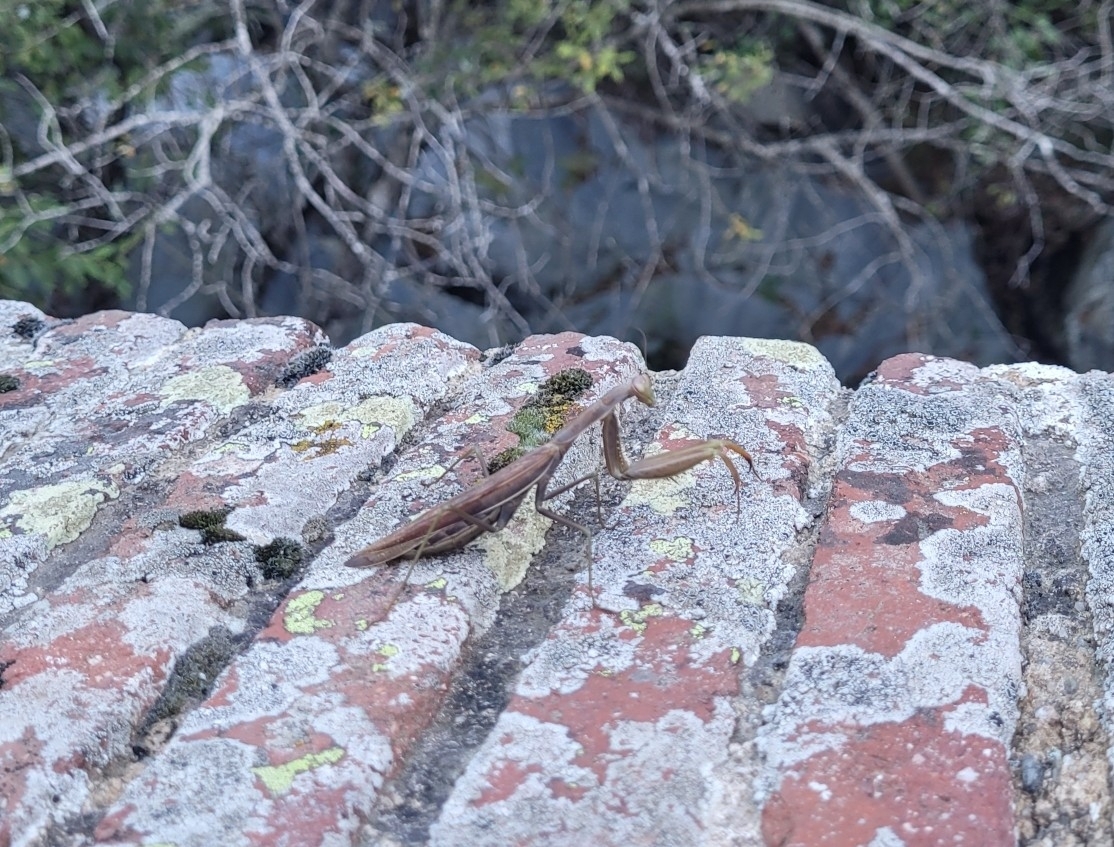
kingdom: Animalia
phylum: Arthropoda
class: Insecta
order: Mantodea
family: Mantidae
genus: Mantis
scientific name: Mantis religiosa
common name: Praying mantis
